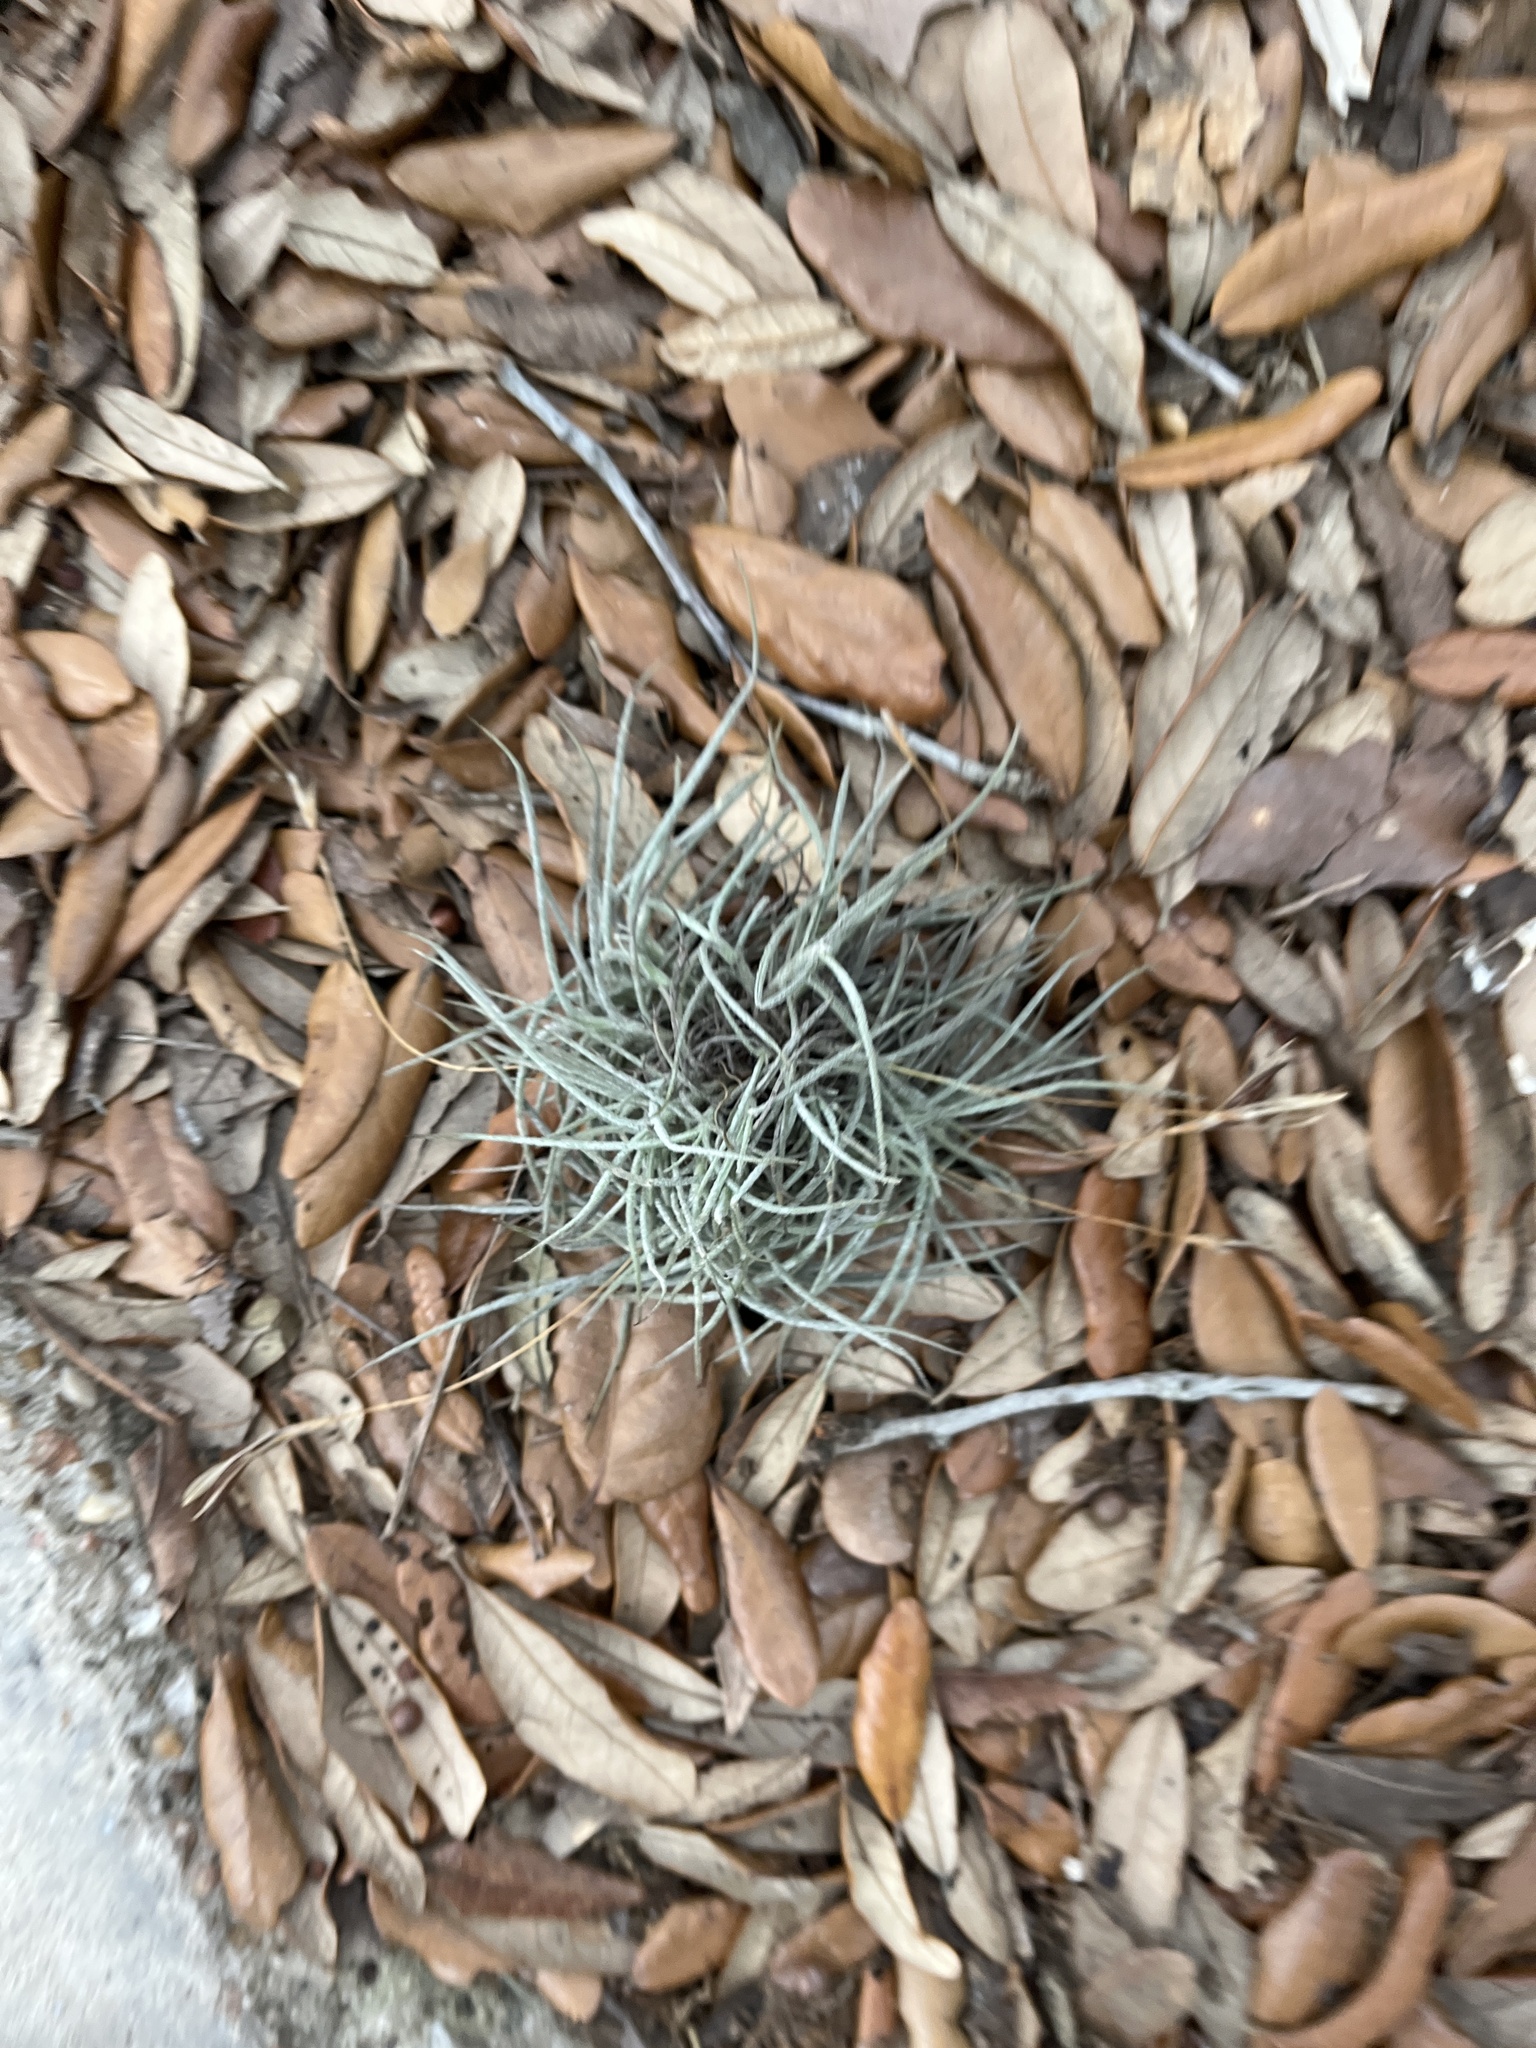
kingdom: Plantae
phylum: Tracheophyta
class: Liliopsida
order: Poales
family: Bromeliaceae
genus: Tillandsia
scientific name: Tillandsia recurvata
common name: Small ballmoss
